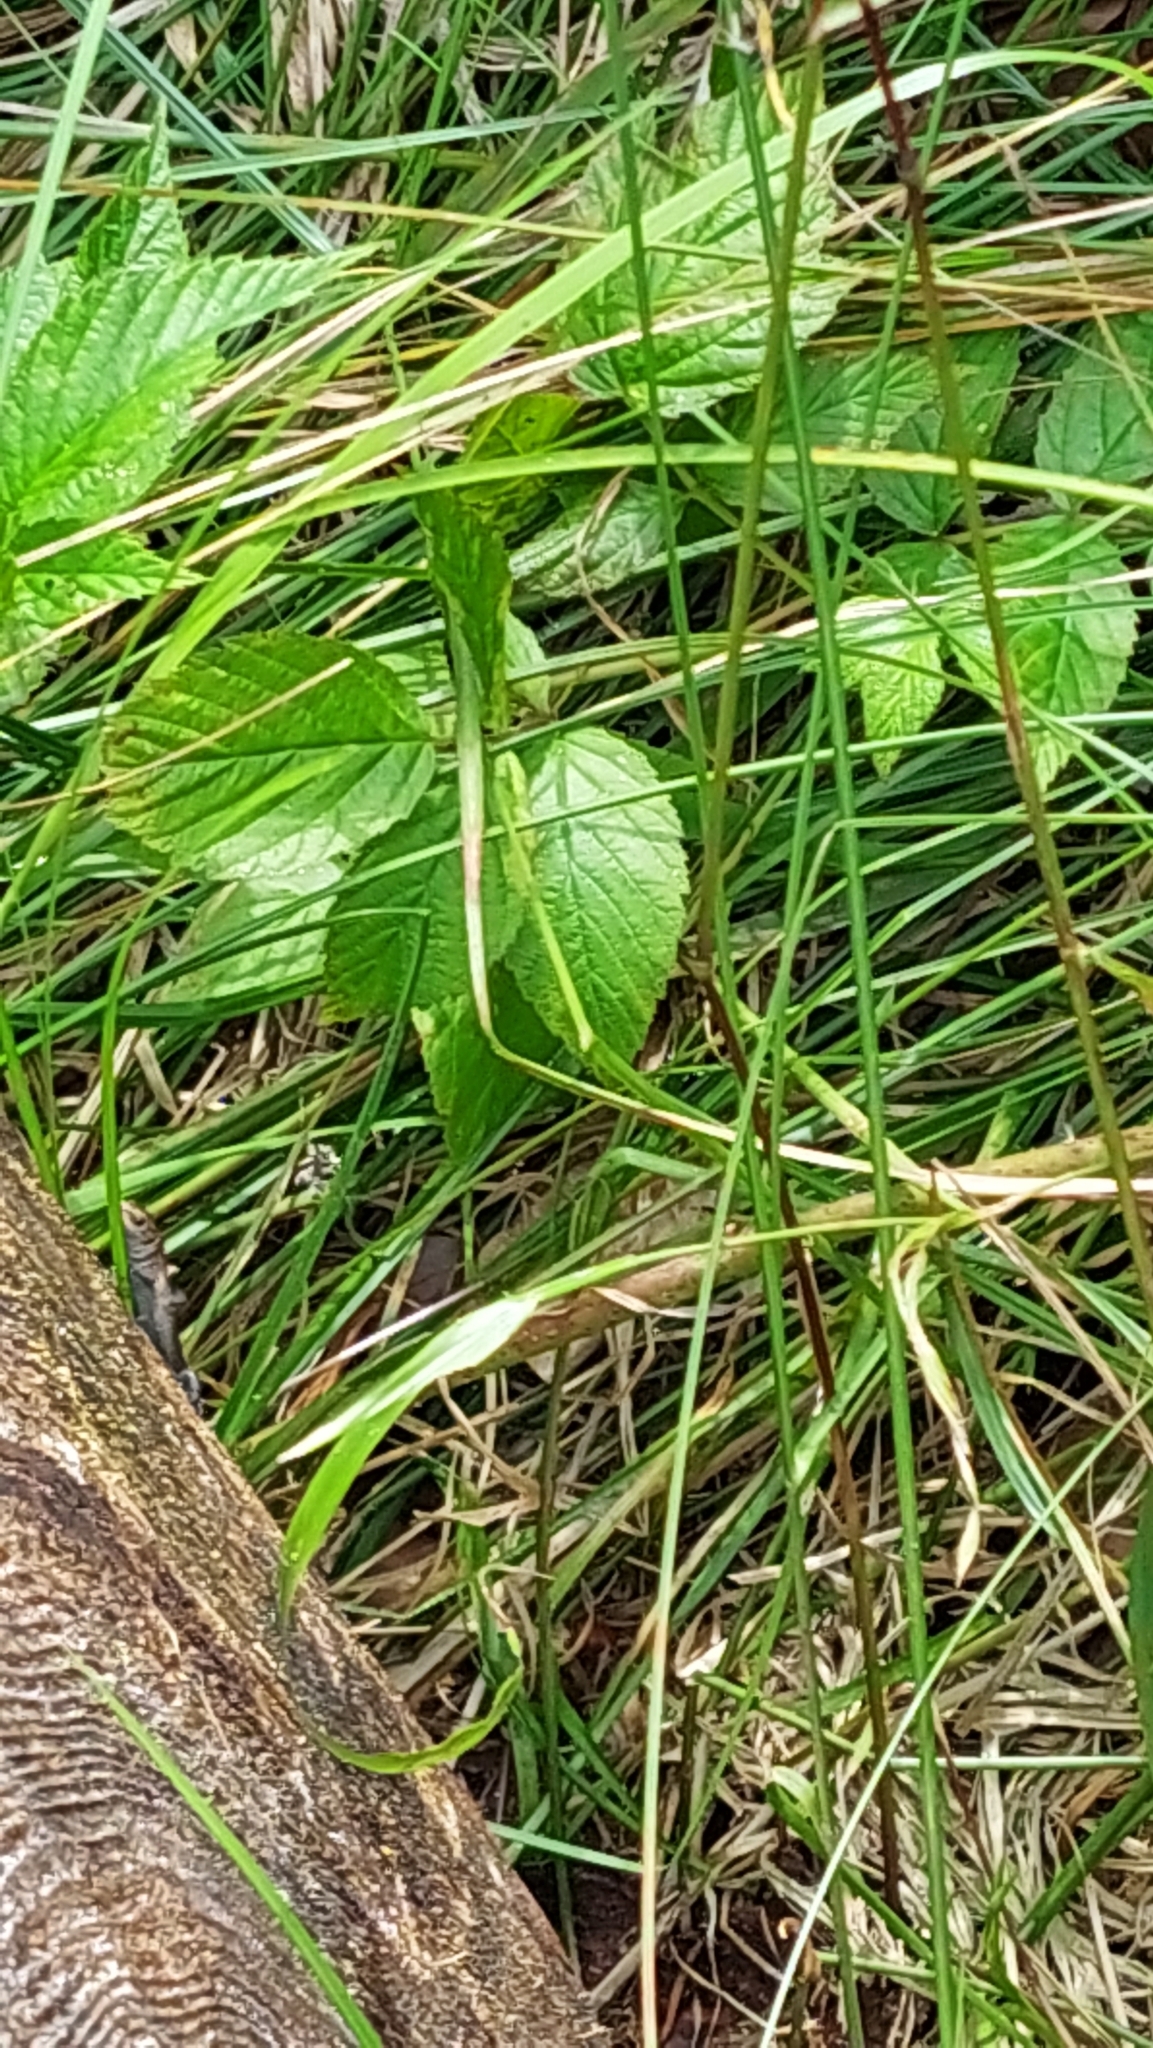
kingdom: Animalia
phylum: Chordata
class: Squamata
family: Lacertidae
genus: Zootoca
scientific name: Zootoca vivipara
